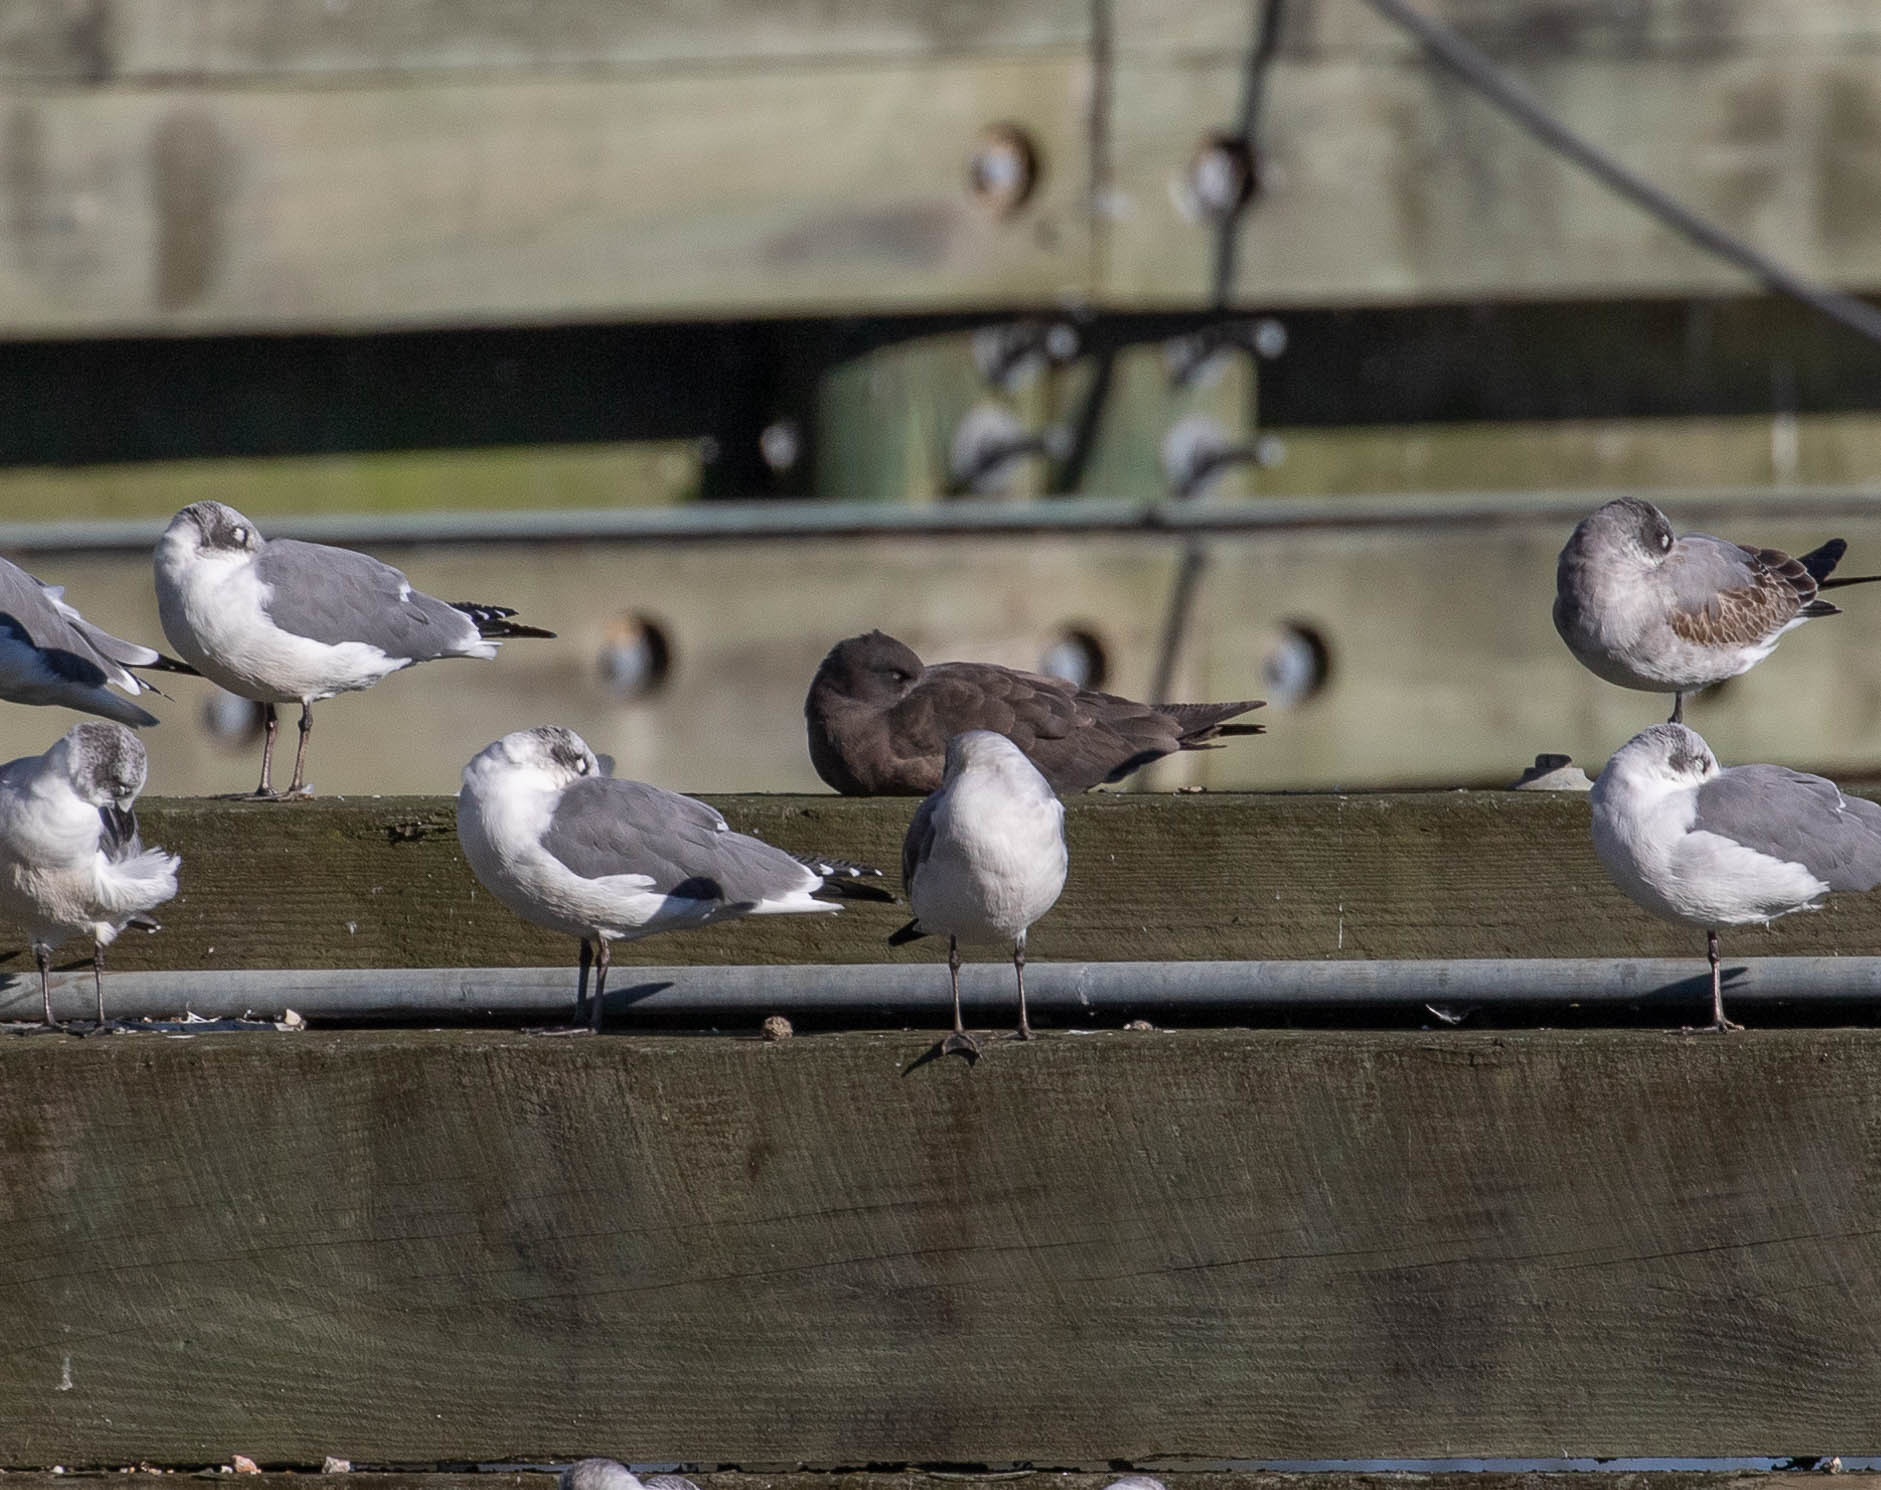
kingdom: Animalia
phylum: Chordata
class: Aves
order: Charadriiformes
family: Laridae
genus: Leucophaeus
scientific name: Leucophaeus atricilla
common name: Laughing gull
